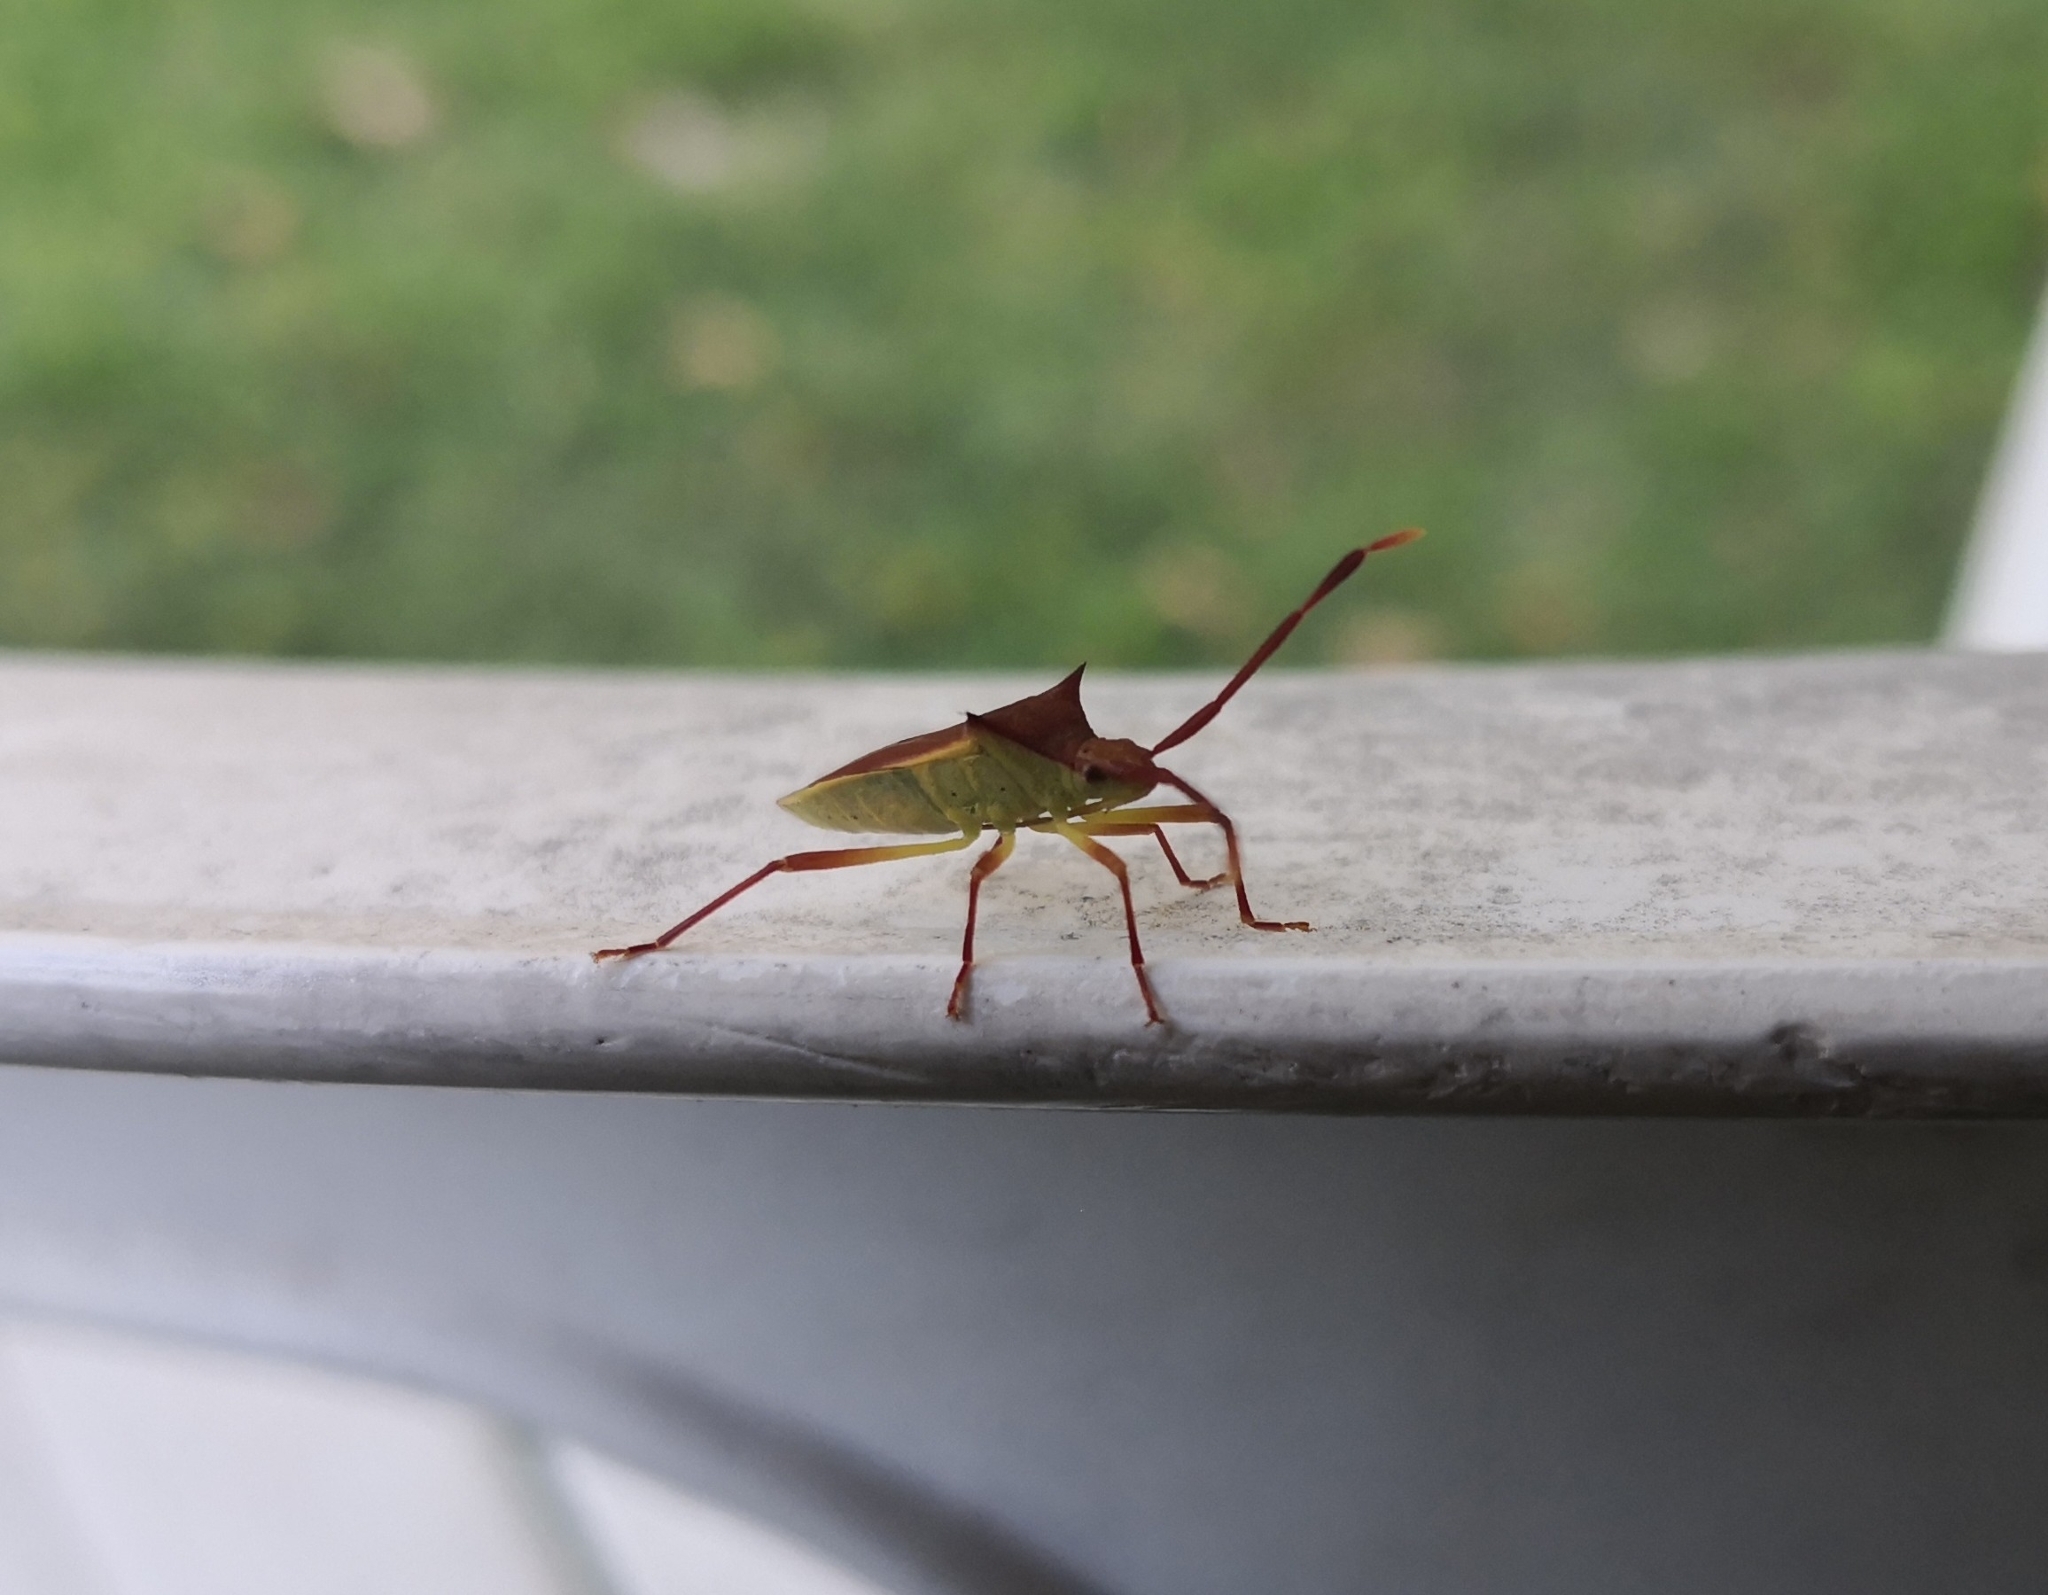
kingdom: Animalia
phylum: Arthropoda
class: Insecta
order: Hemiptera
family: Coreidae
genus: Gonocerus
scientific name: Gonocerus insidiator
